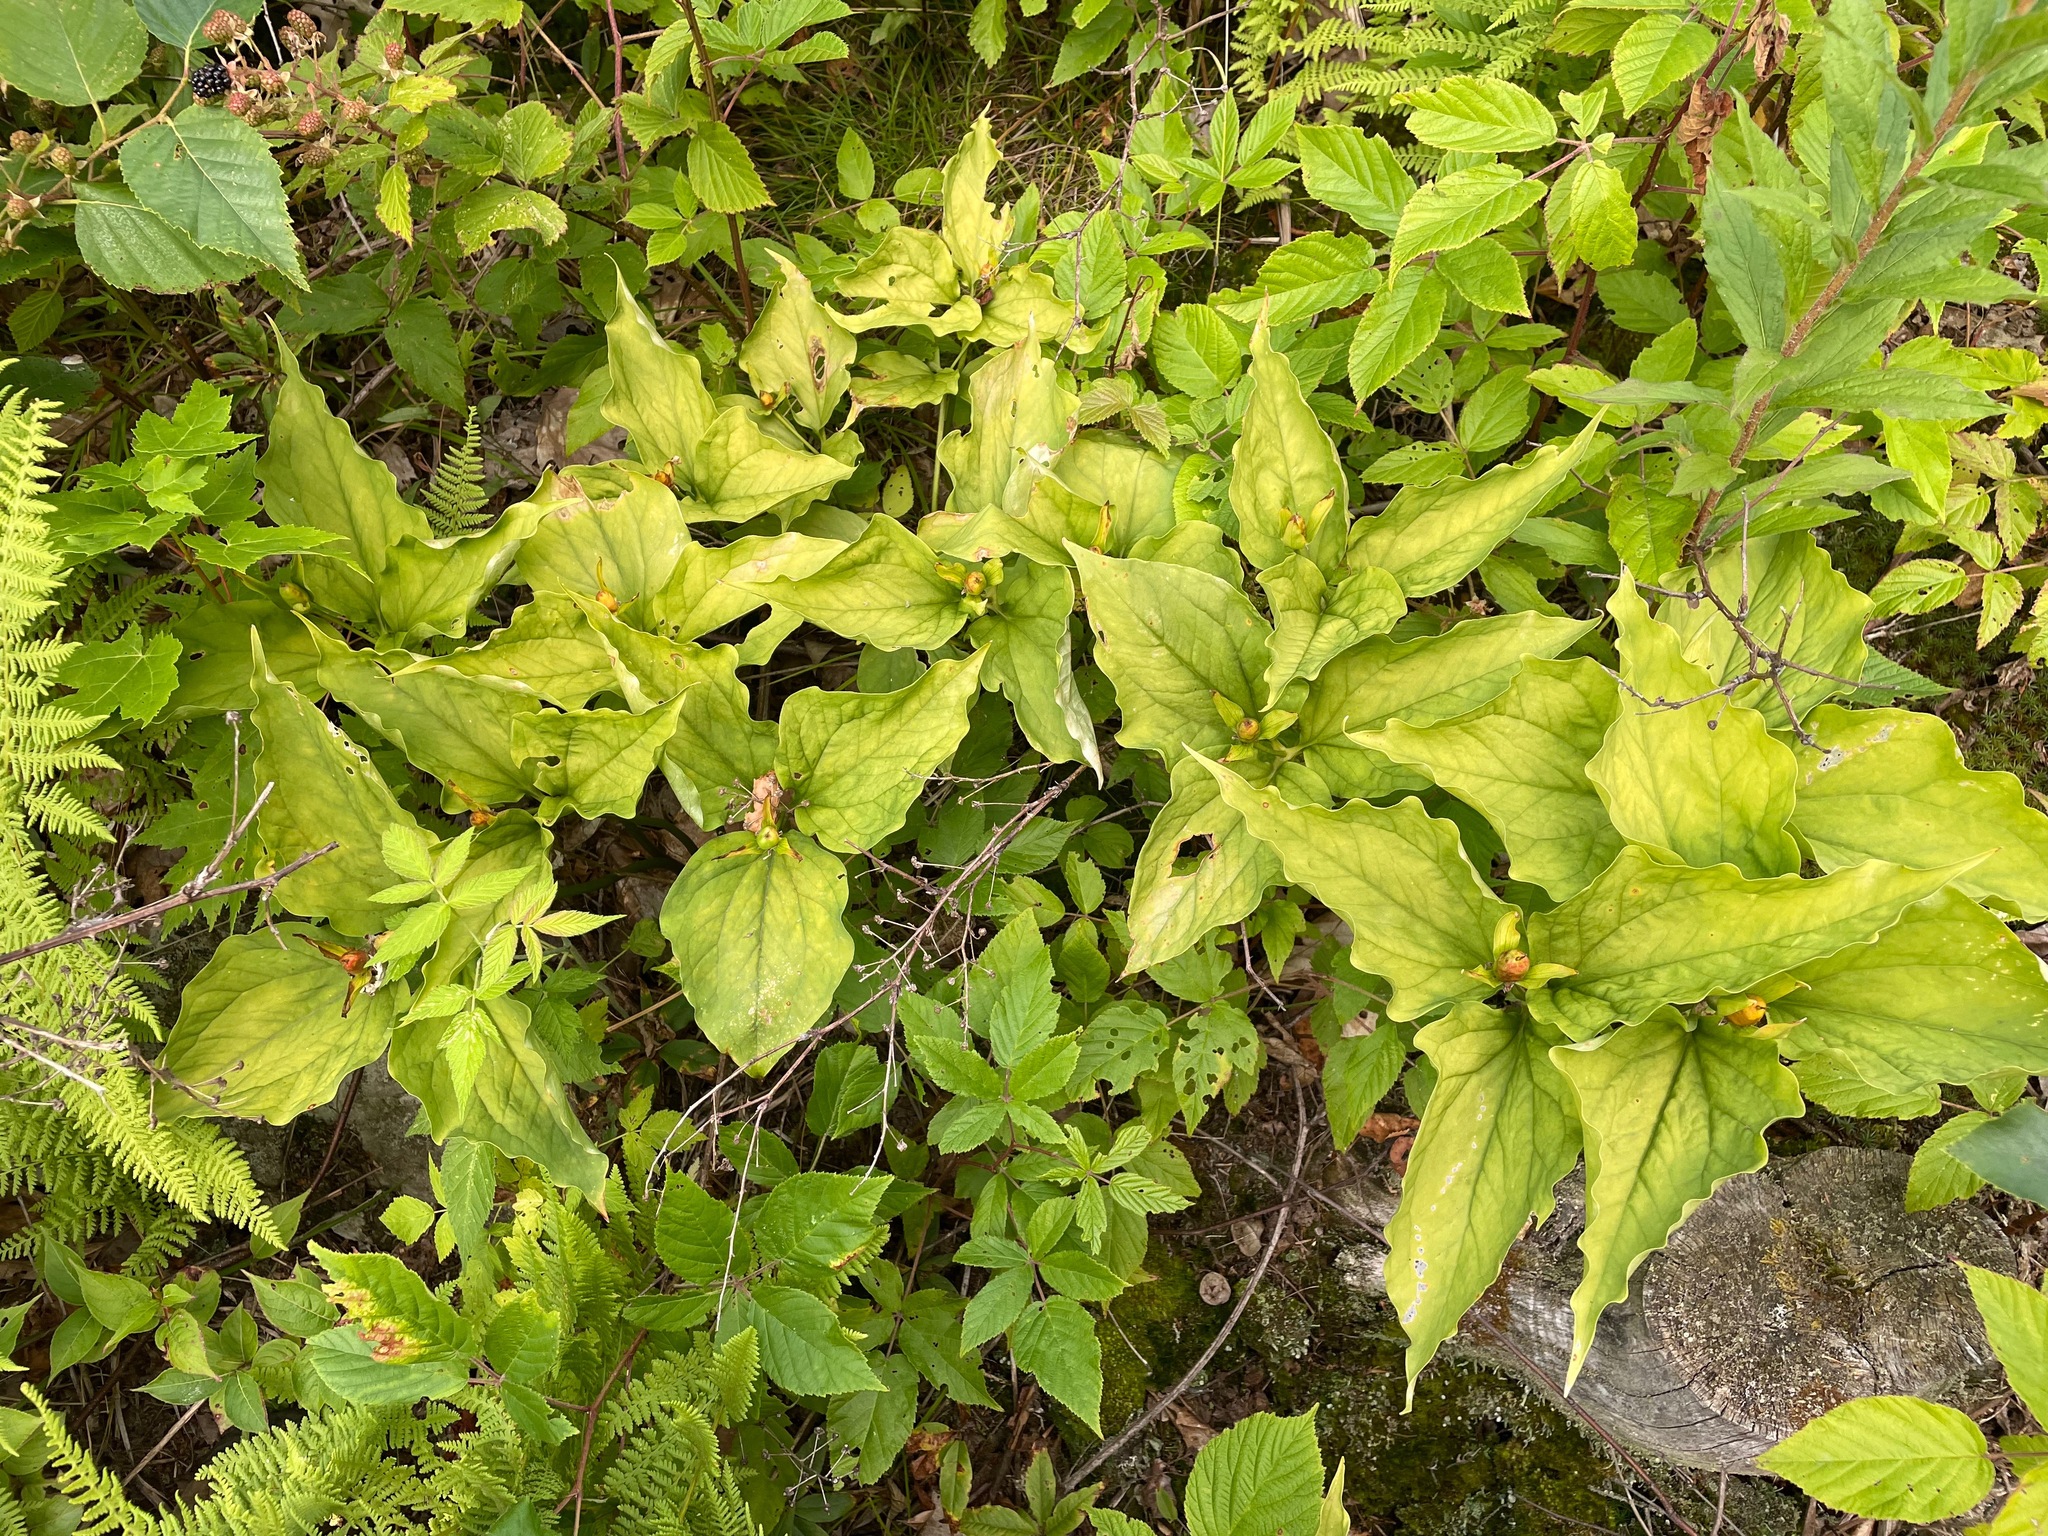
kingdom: Plantae
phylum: Tracheophyta
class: Liliopsida
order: Liliales
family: Melanthiaceae
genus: Trillium
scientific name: Trillium undulatum
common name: Paint trillium
